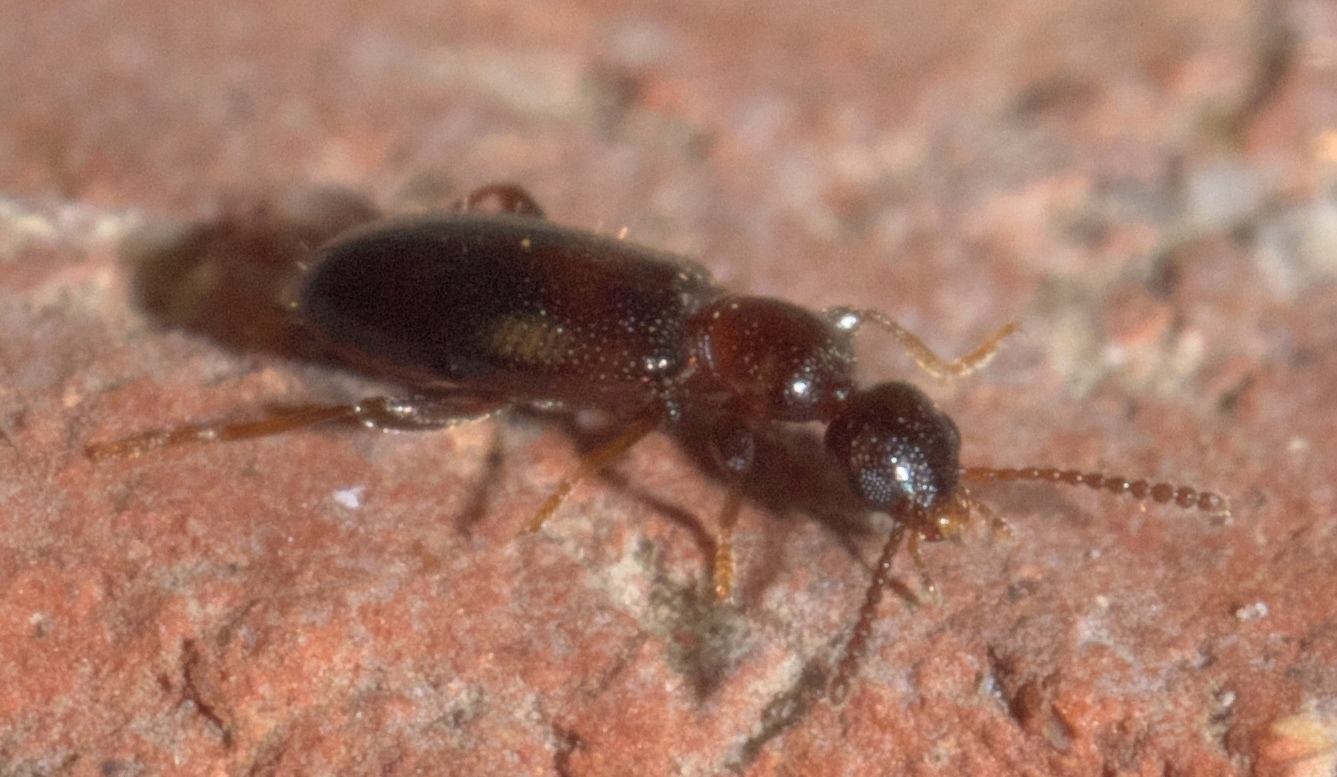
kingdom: Animalia
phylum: Arthropoda
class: Insecta
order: Coleoptera
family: Anthicidae
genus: Omonadus
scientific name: Omonadus formicarius
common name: Antlike flower beetle
